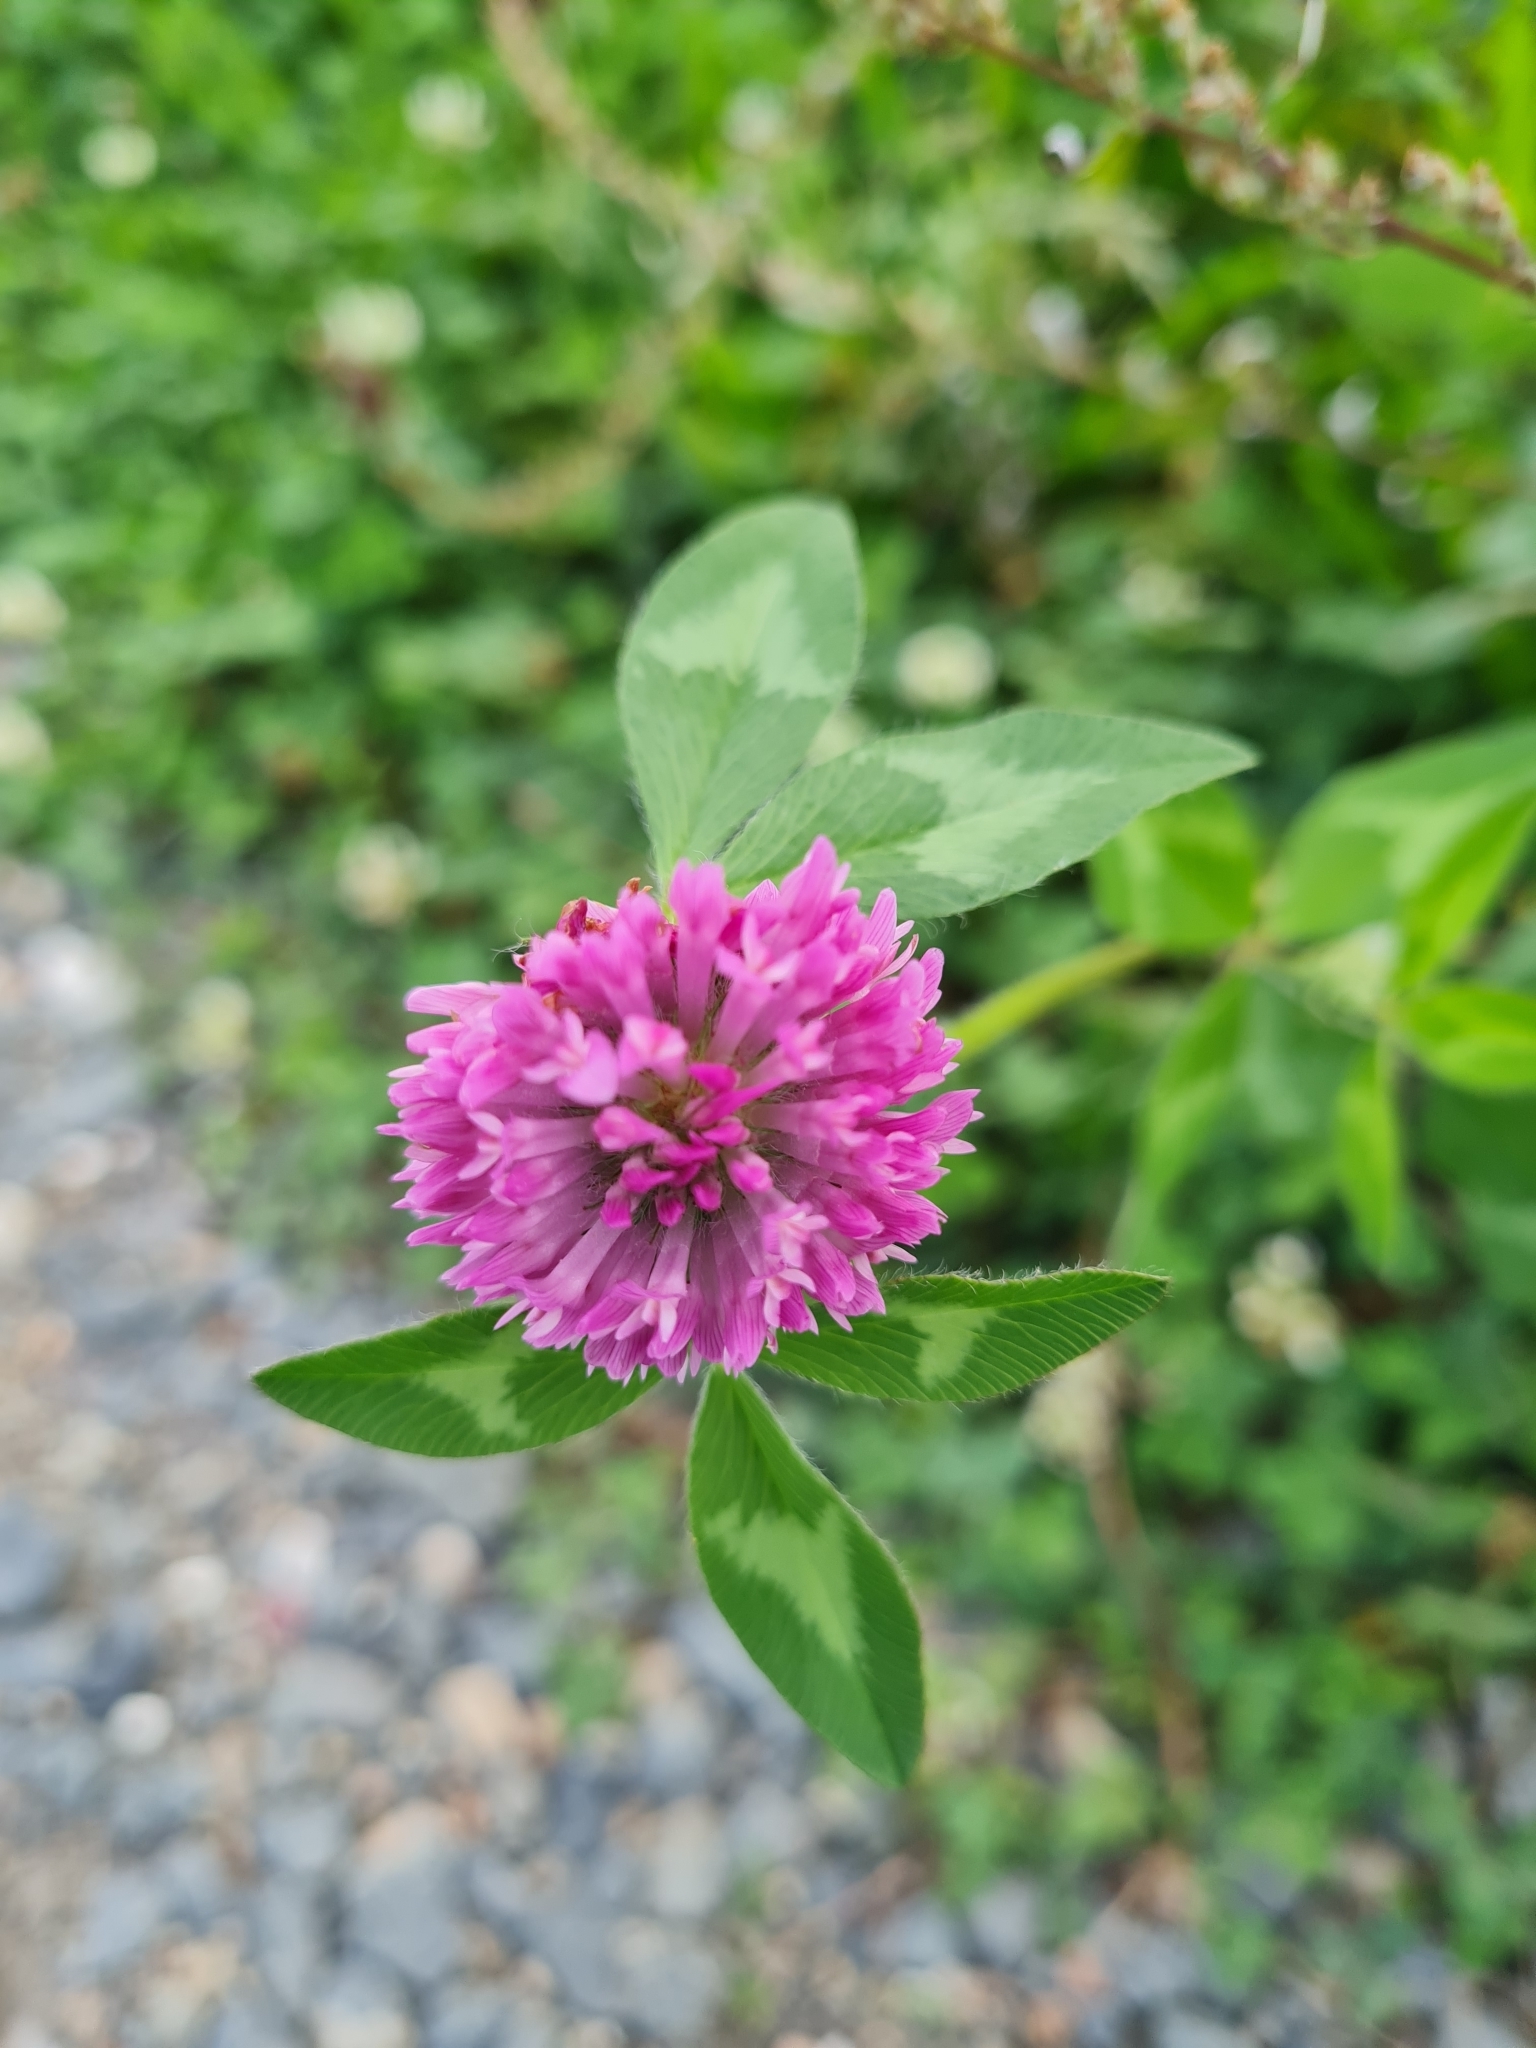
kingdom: Plantae
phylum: Tracheophyta
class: Magnoliopsida
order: Fabales
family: Fabaceae
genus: Trifolium
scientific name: Trifolium pratense
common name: Red clover
